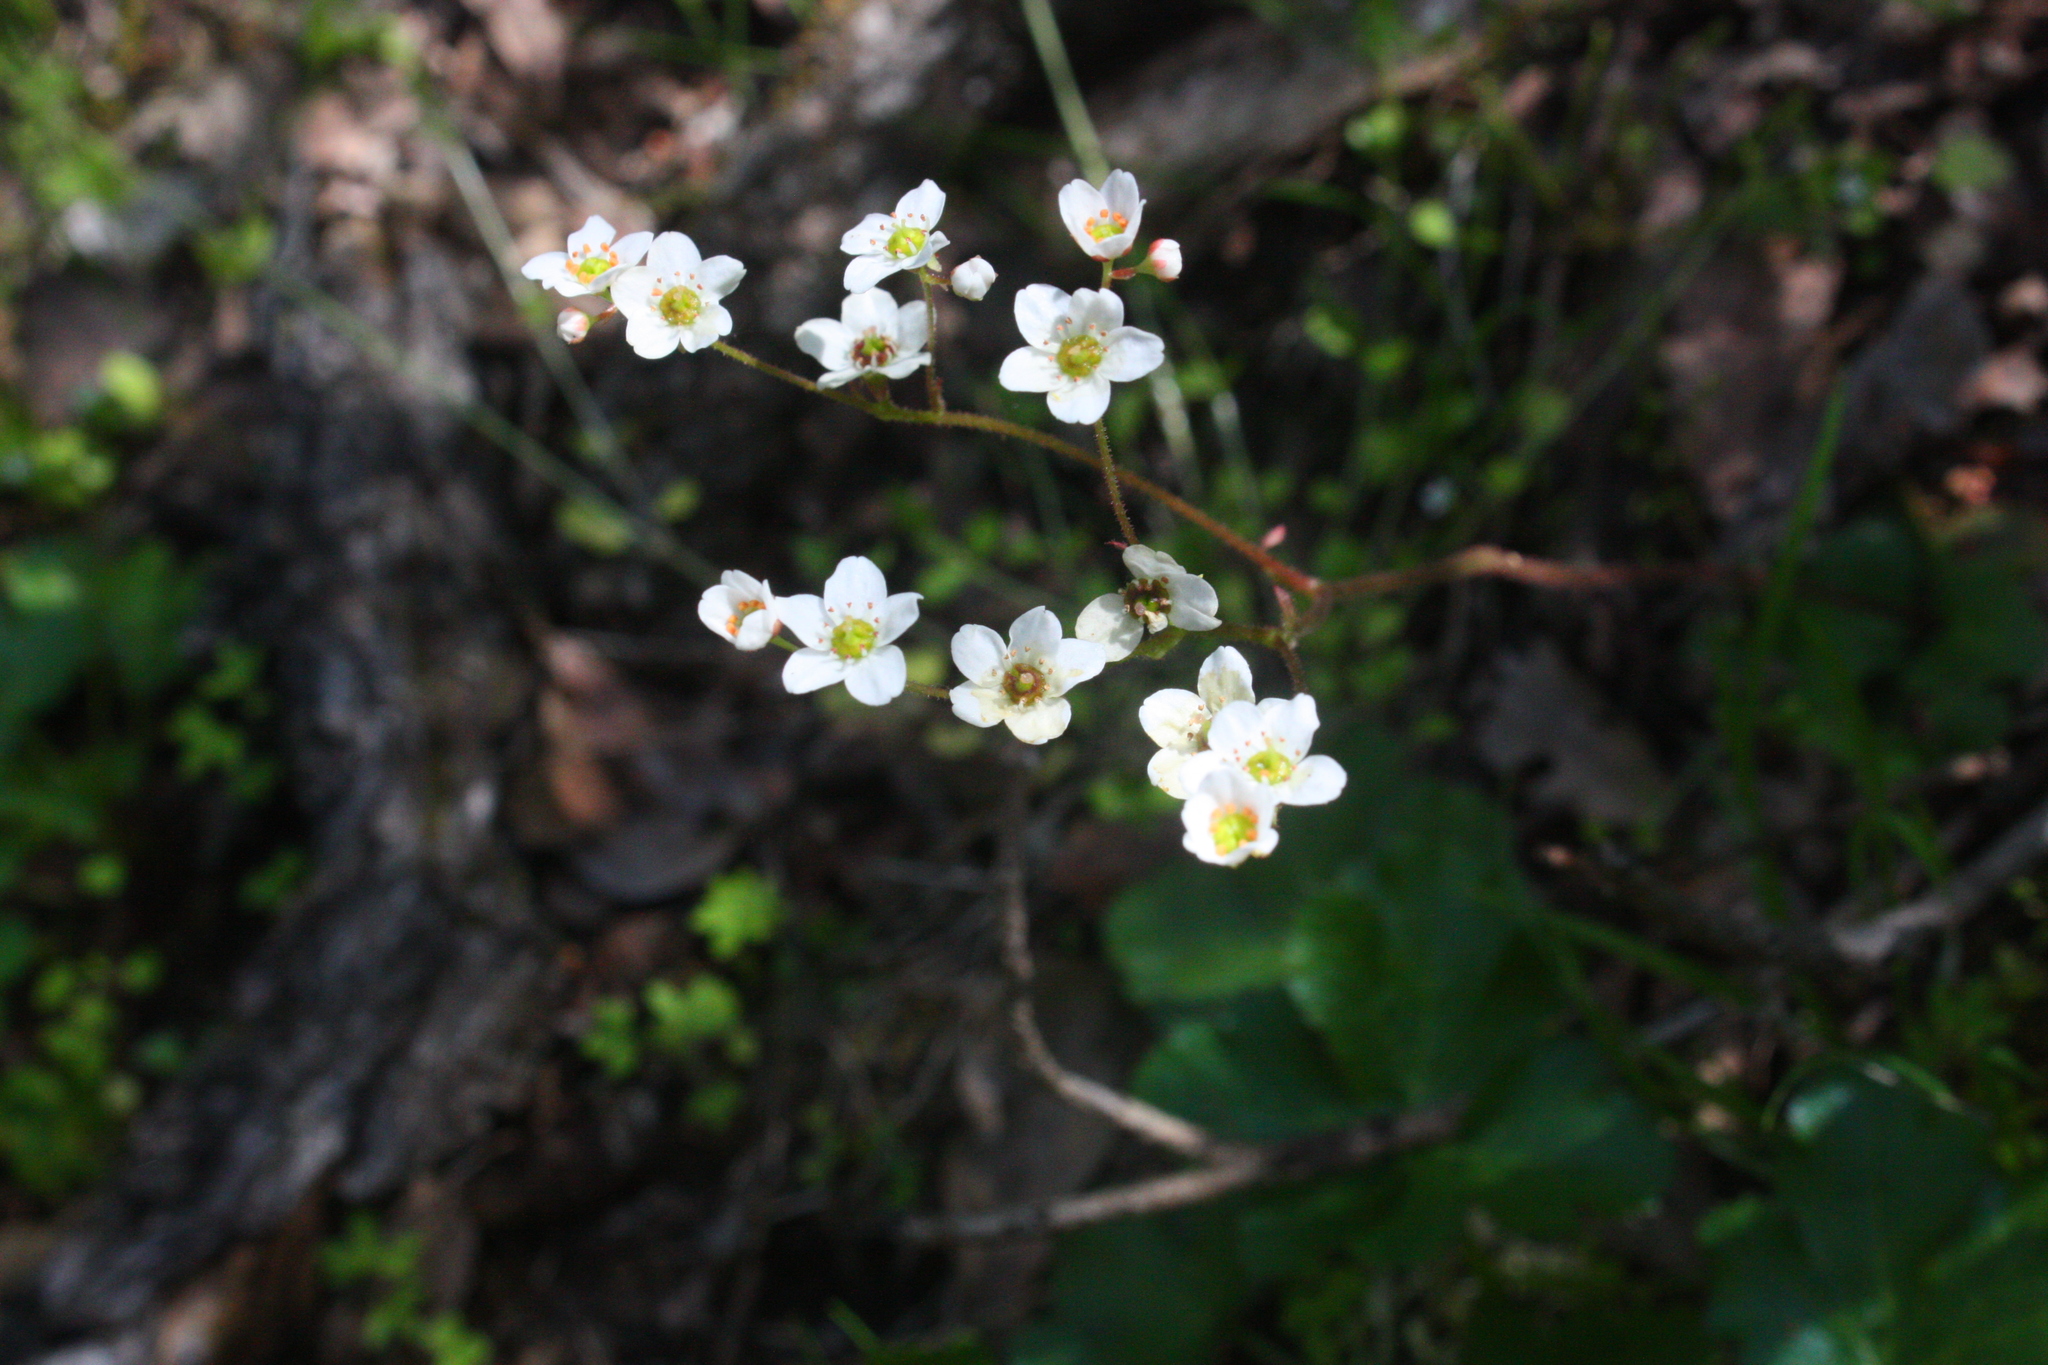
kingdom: Plantae
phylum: Tracheophyta
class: Magnoliopsida
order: Saxifragales
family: Saxifragaceae
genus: Micranthes
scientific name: Micranthes californica
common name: California saxifrage
